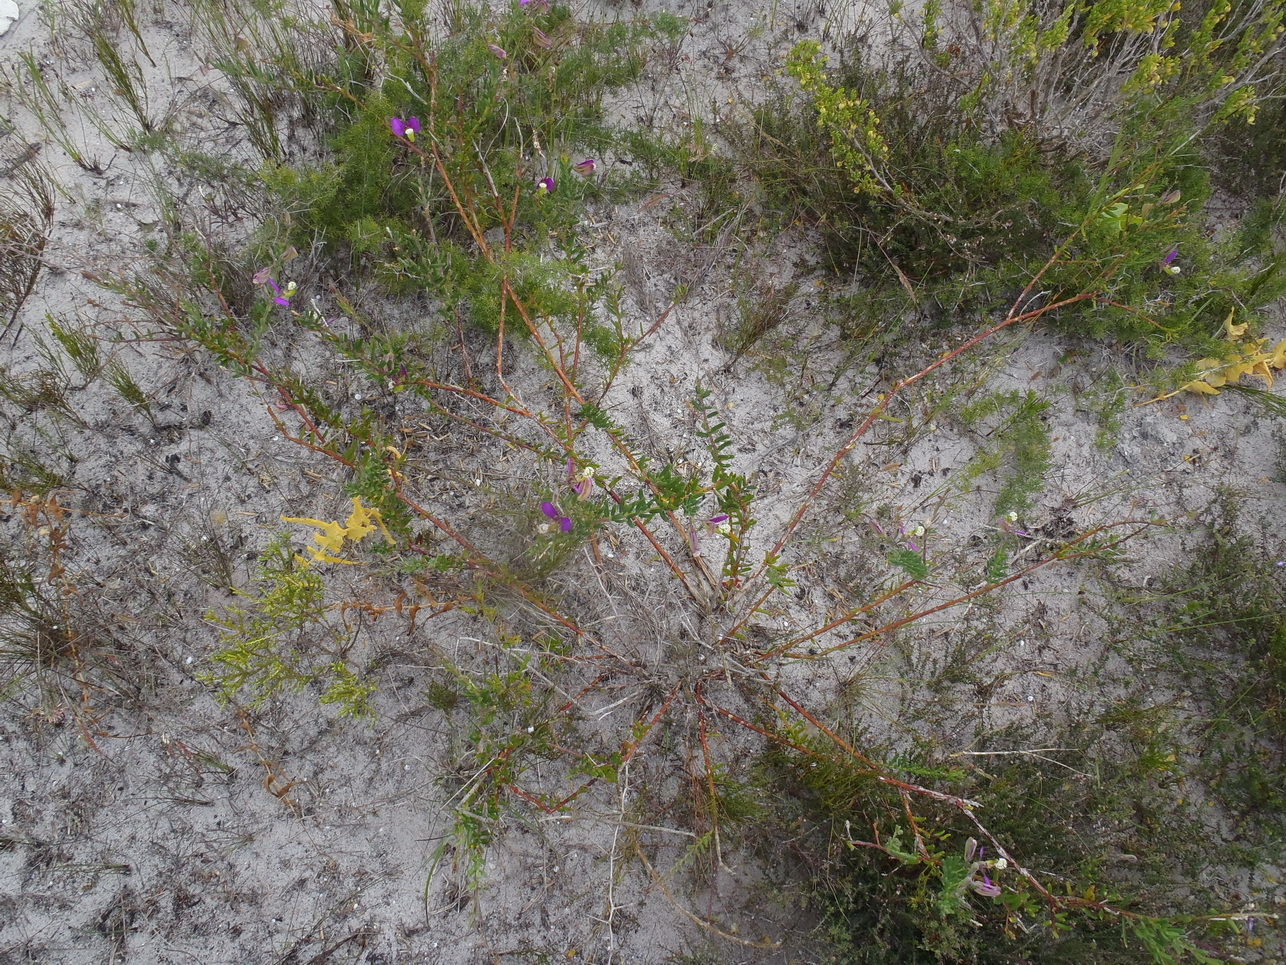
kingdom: Plantae
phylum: Tracheophyta
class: Magnoliopsida
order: Fabales
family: Polygalaceae
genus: Polygala
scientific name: Polygala peduncularis
